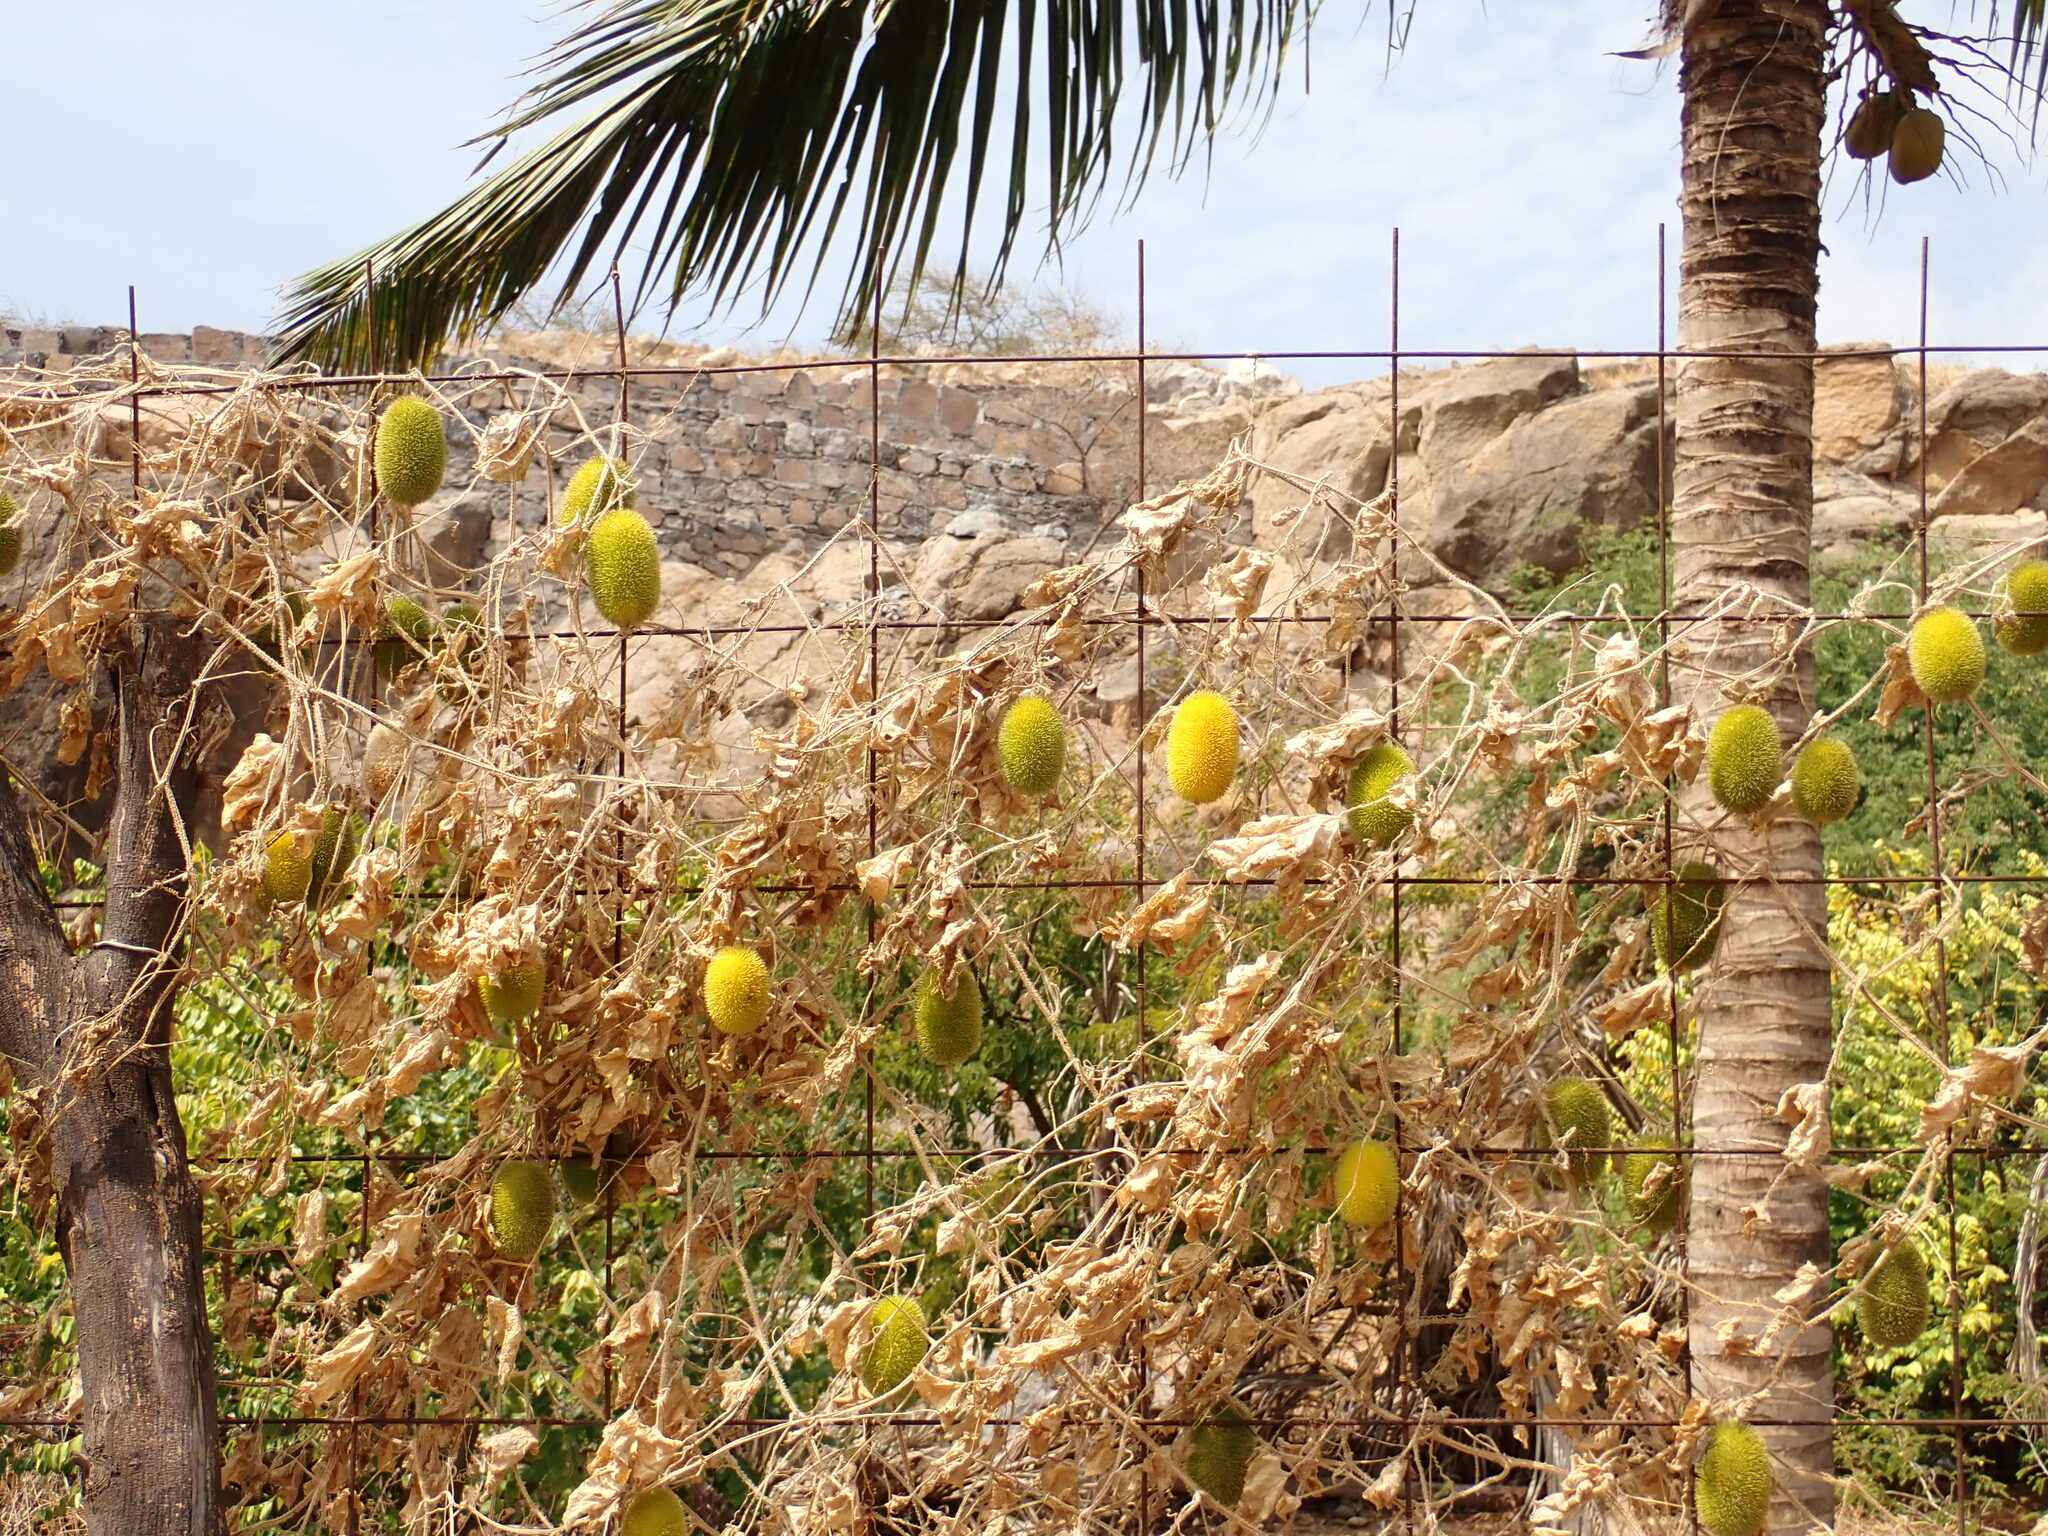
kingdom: Plantae
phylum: Tracheophyta
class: Magnoliopsida
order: Cucurbitales
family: Cucurbitaceae
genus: Cucumis
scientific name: Cucumis dipsaceus
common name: Hedgehog gourd
